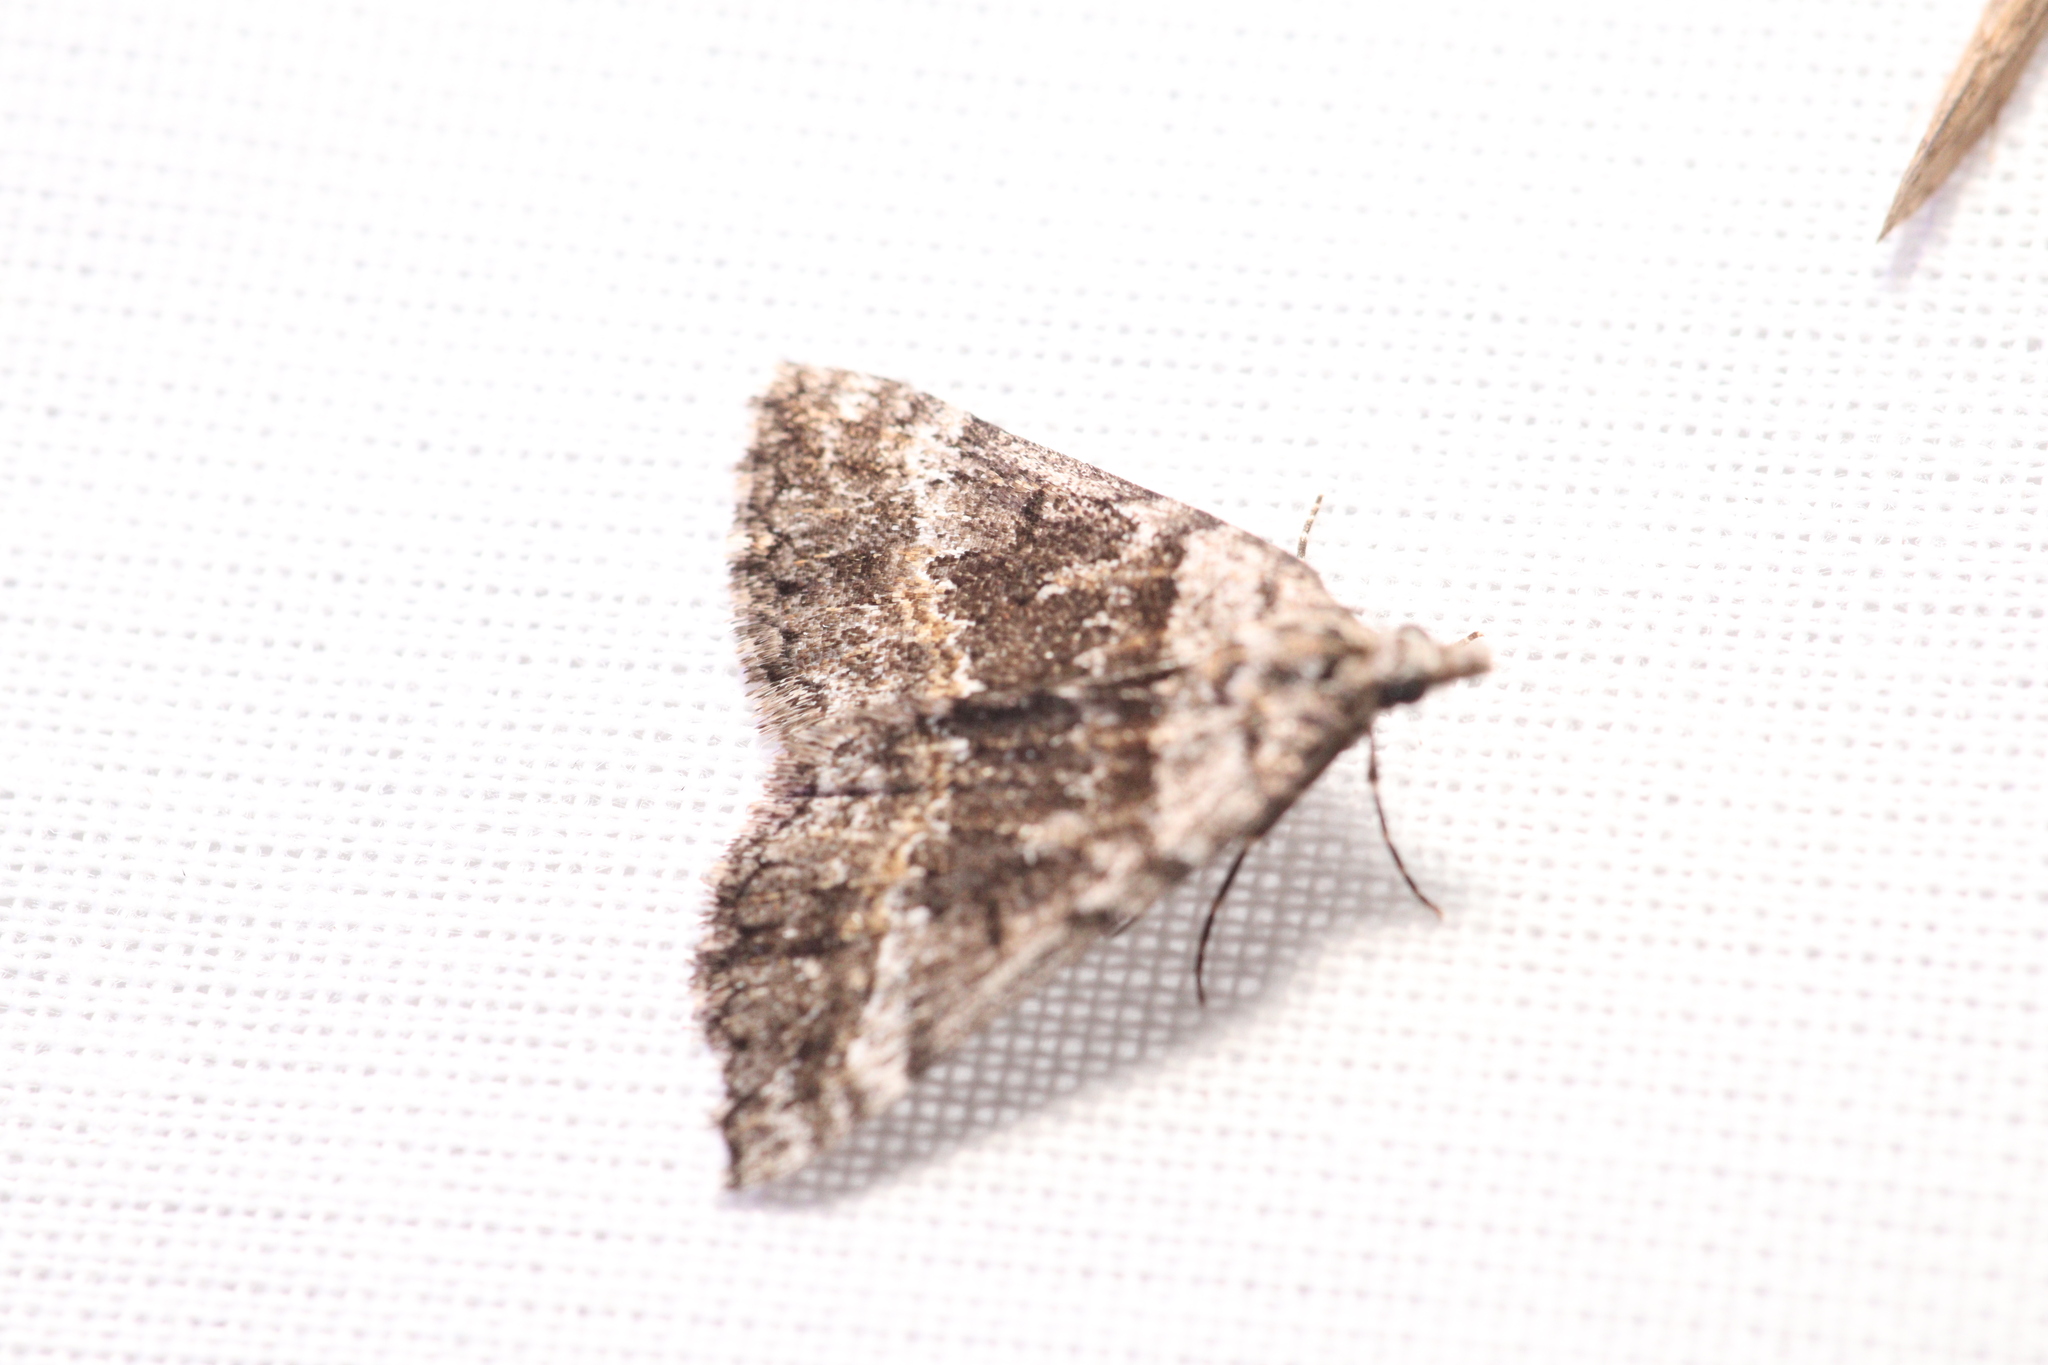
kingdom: Animalia
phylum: Arthropoda
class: Insecta
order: Lepidoptera
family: Geometridae
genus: Dichromodes
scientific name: Dichromodes emplecta
